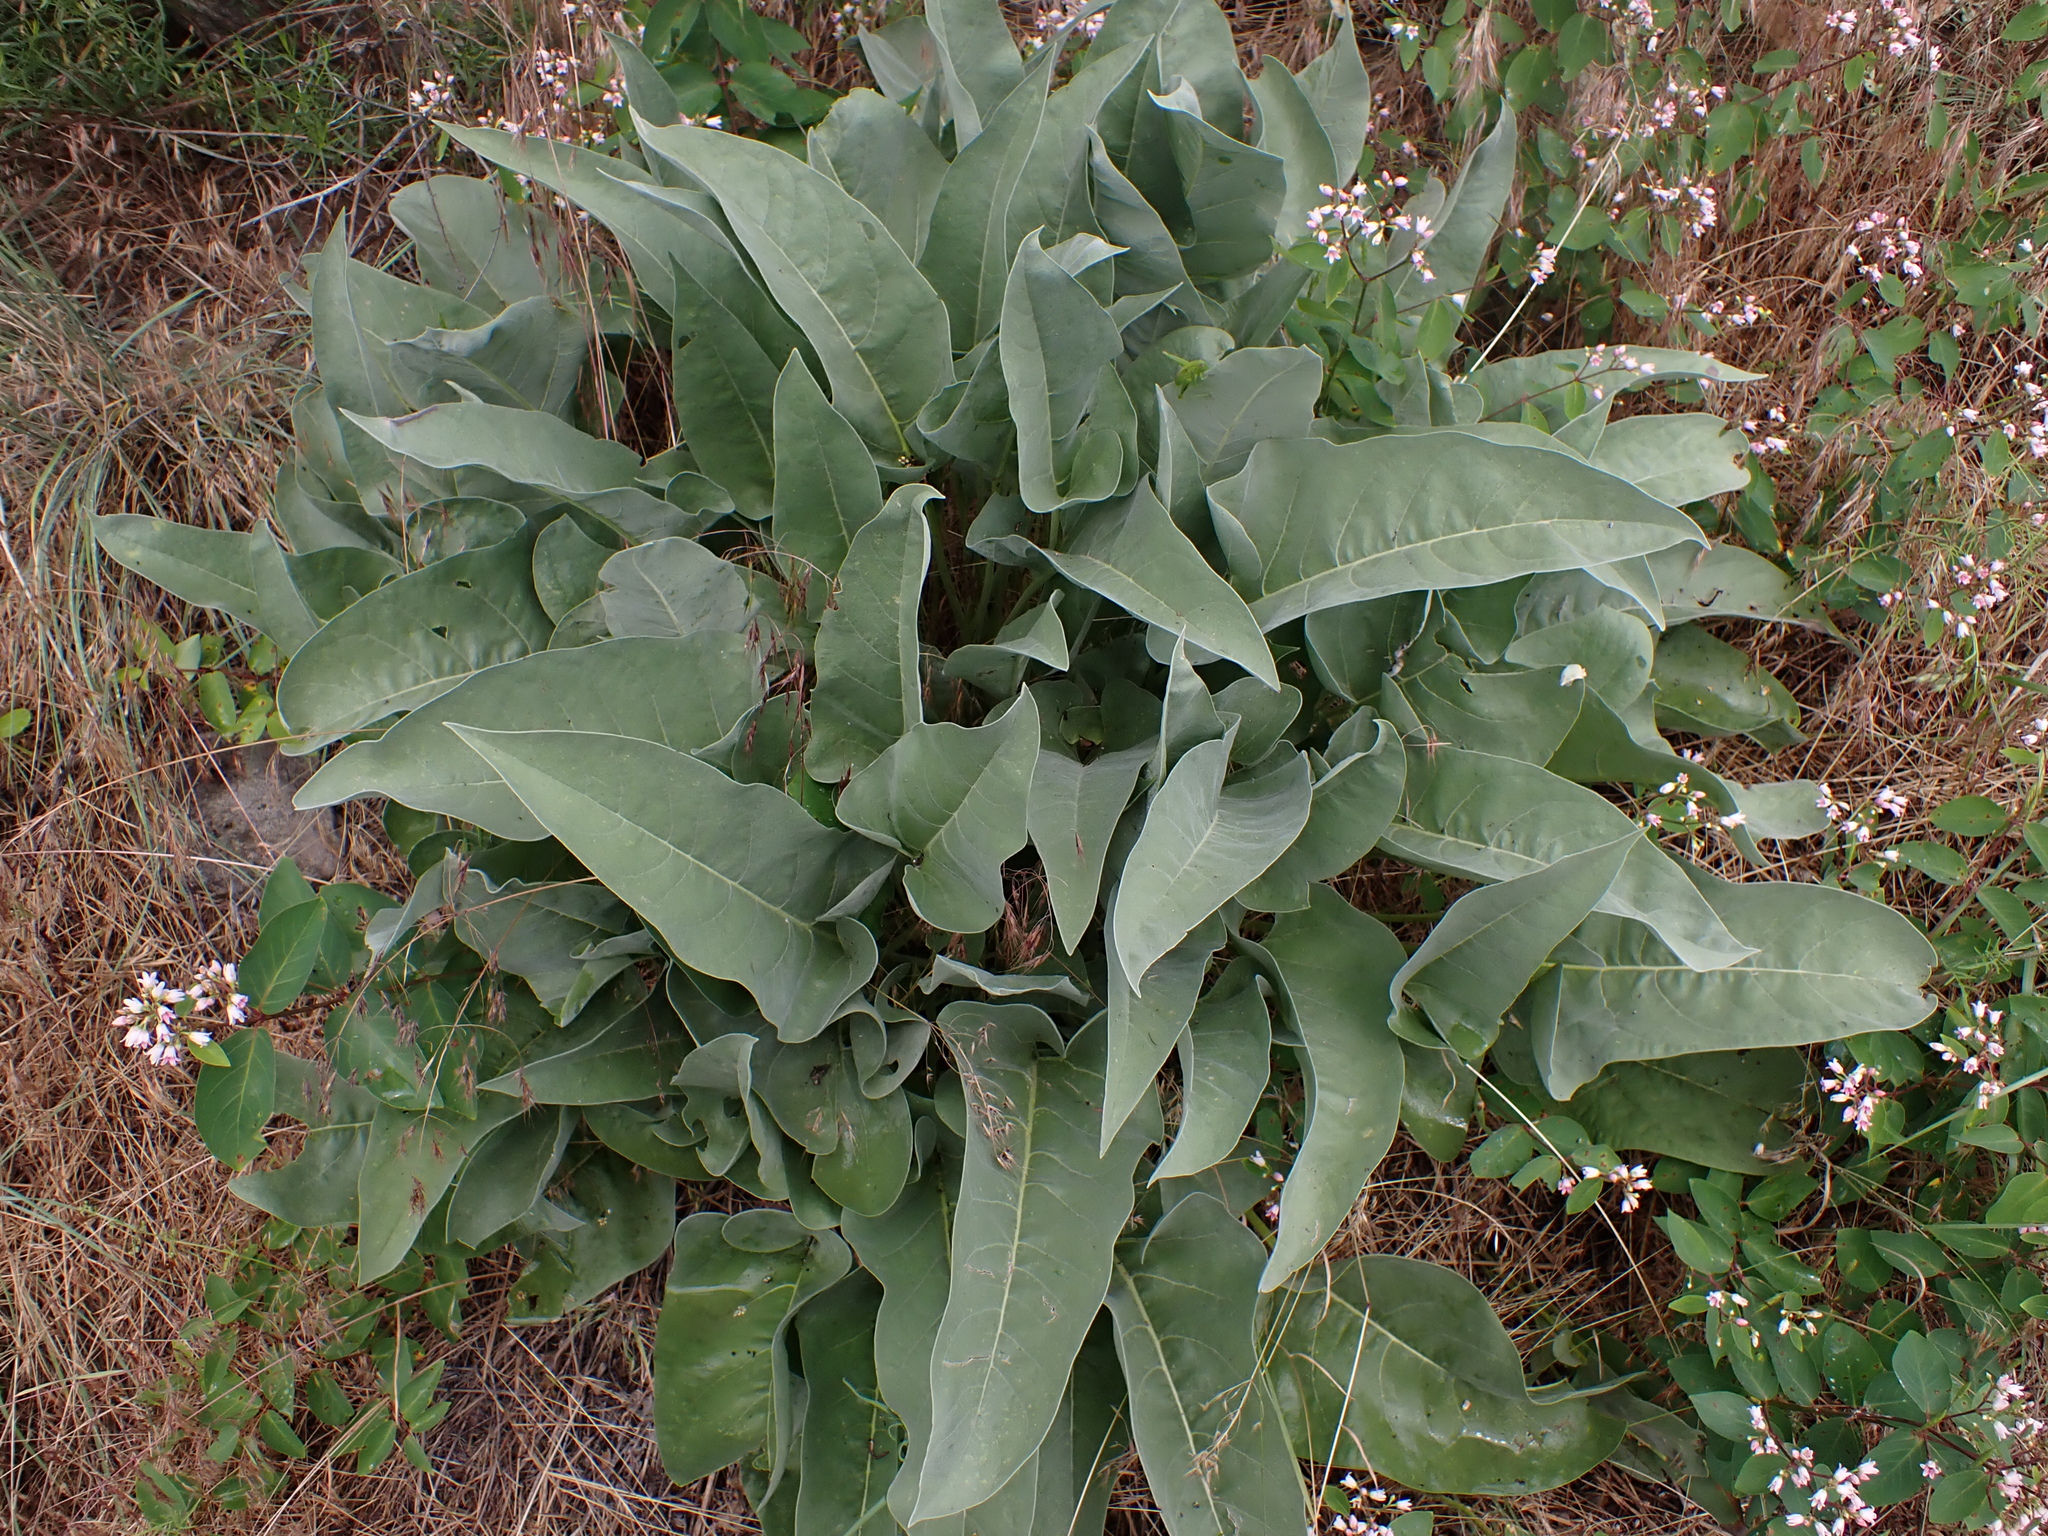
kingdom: Plantae
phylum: Tracheophyta
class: Magnoliopsida
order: Asterales
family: Asteraceae
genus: Wyethia
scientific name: Wyethia sagittata
